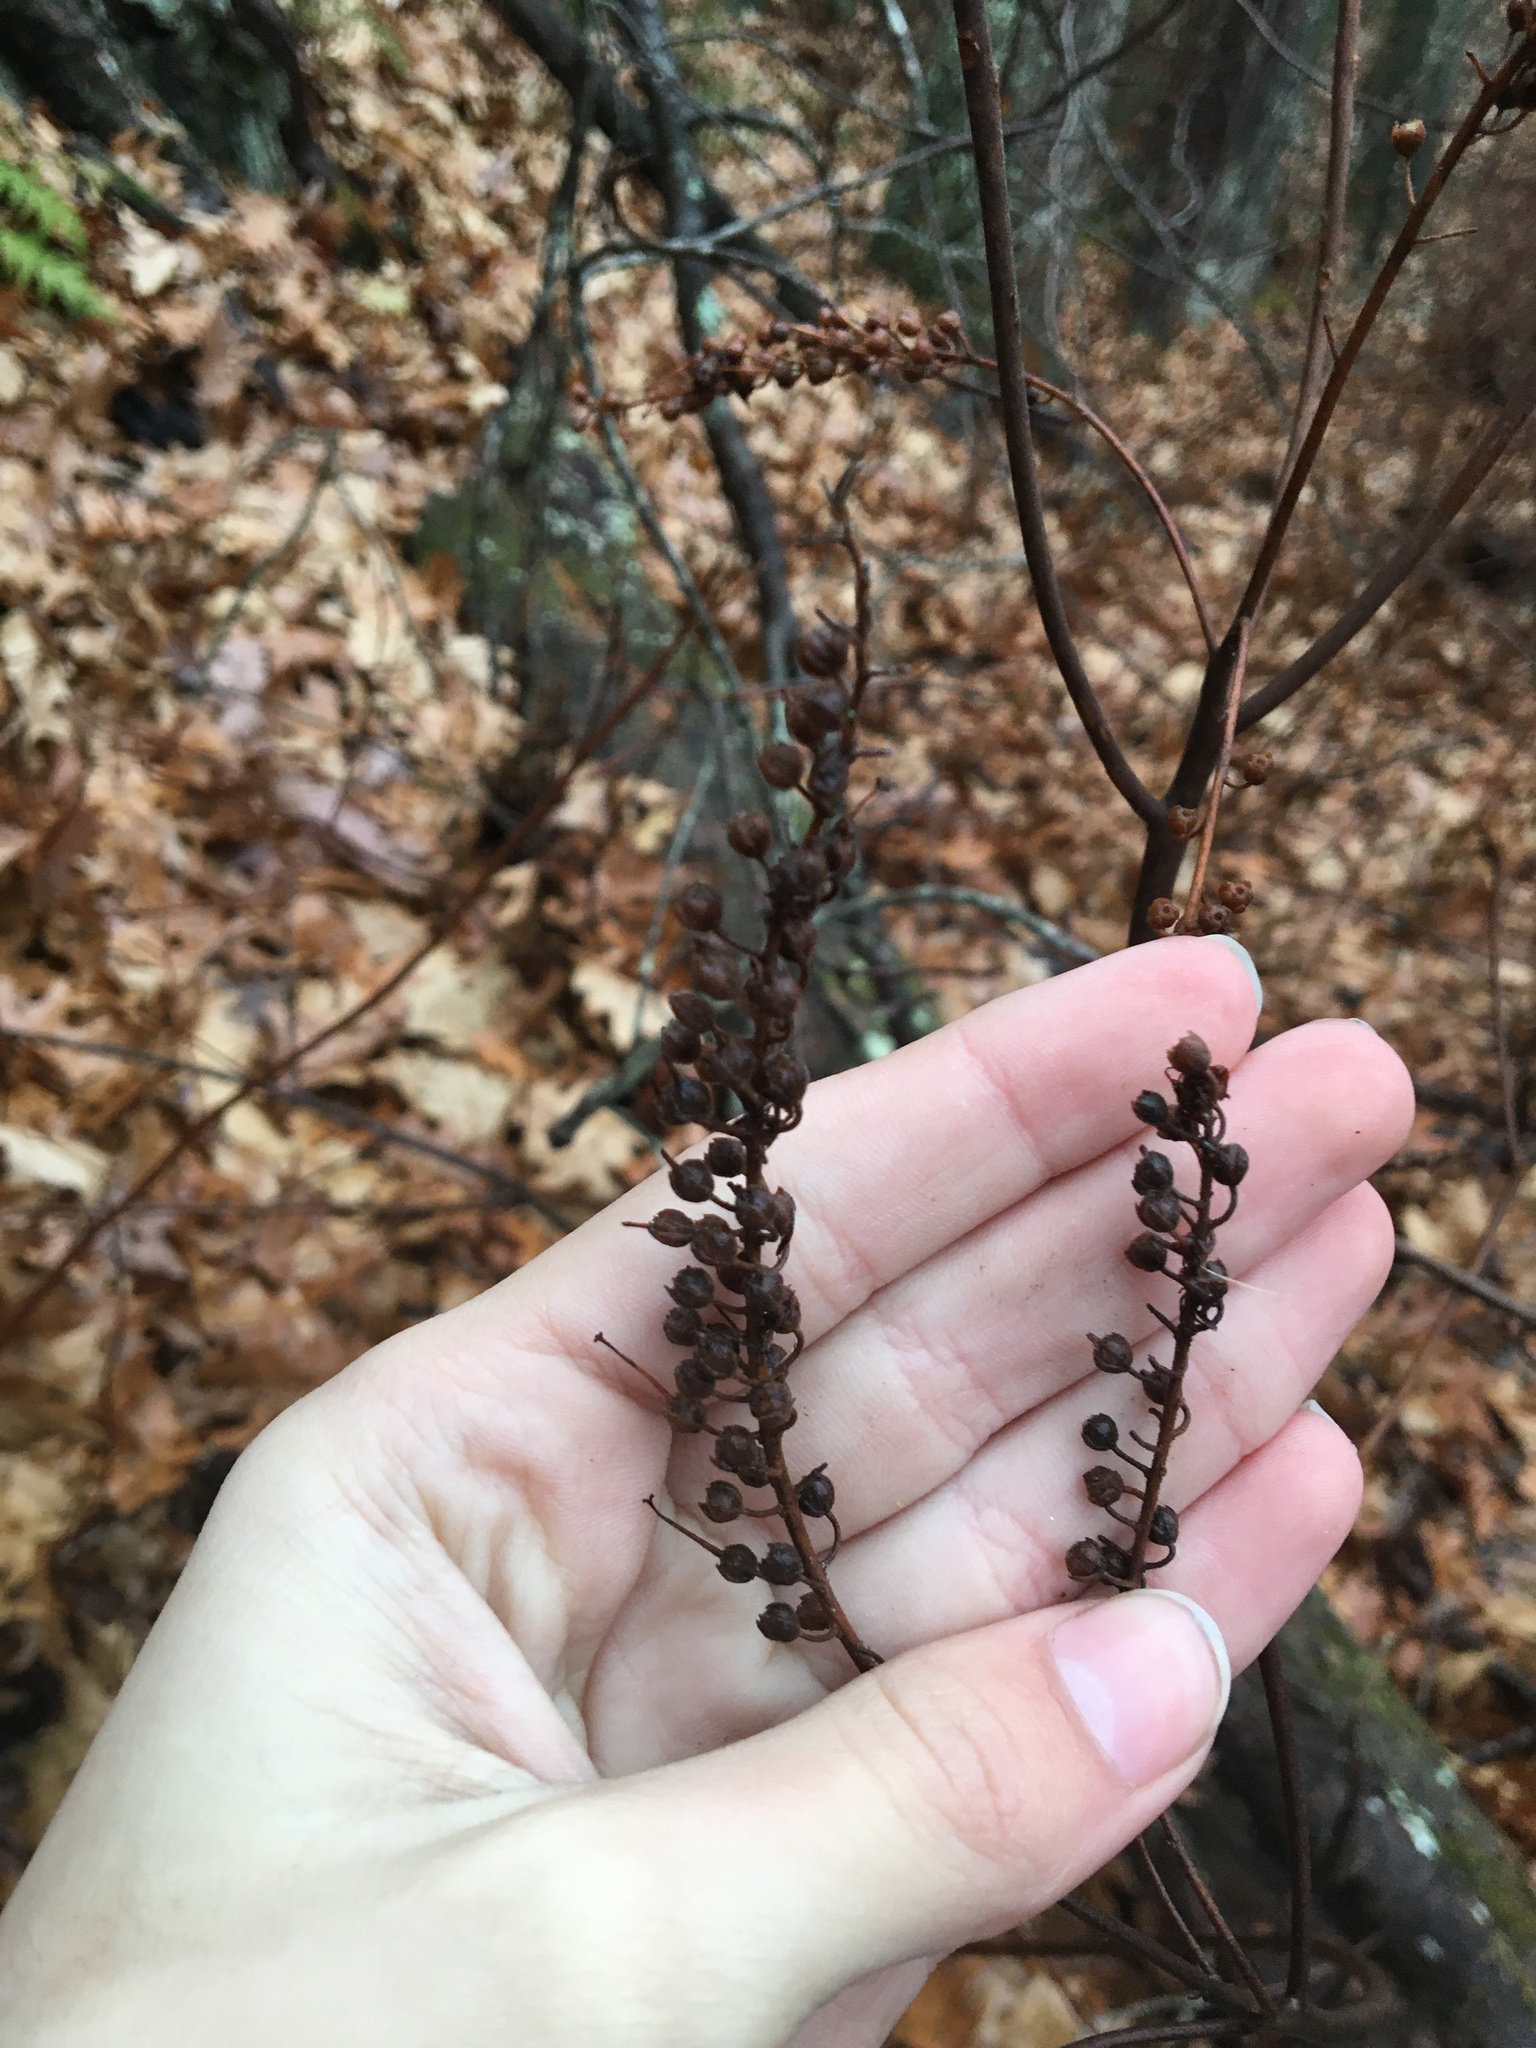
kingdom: Plantae
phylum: Tracheophyta
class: Magnoliopsida
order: Ericales
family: Clethraceae
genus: Clethra
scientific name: Clethra alnifolia
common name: Sweet pepperbush
